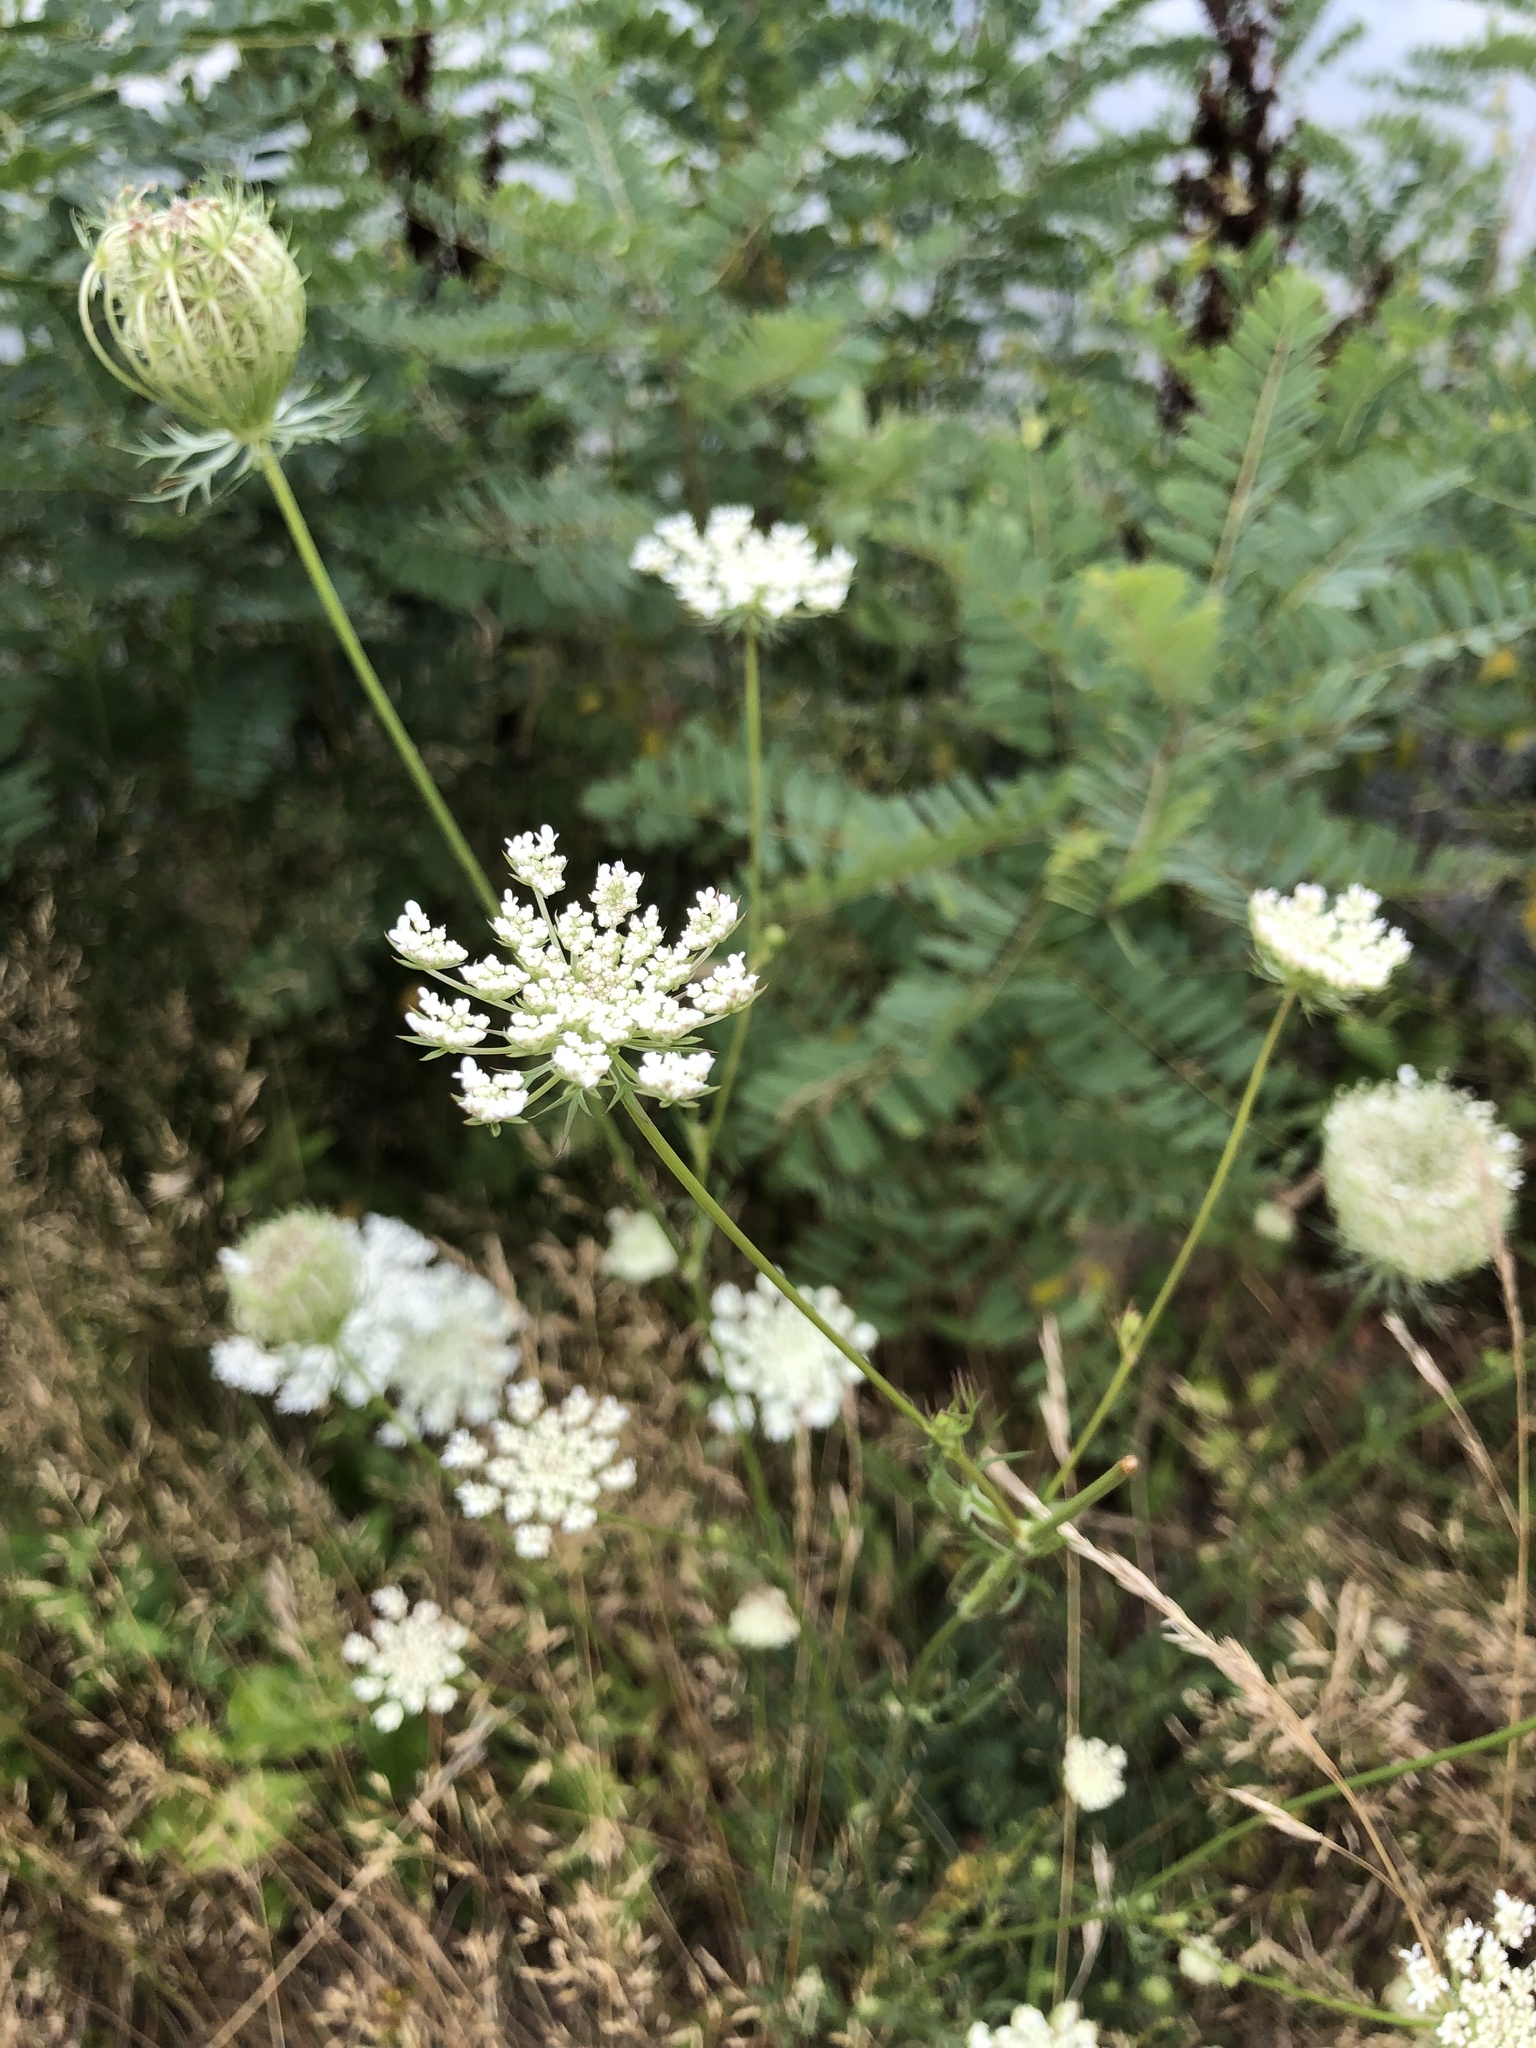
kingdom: Plantae
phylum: Tracheophyta
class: Magnoliopsida
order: Apiales
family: Apiaceae
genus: Daucus
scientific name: Daucus carota
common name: Wild carrot
